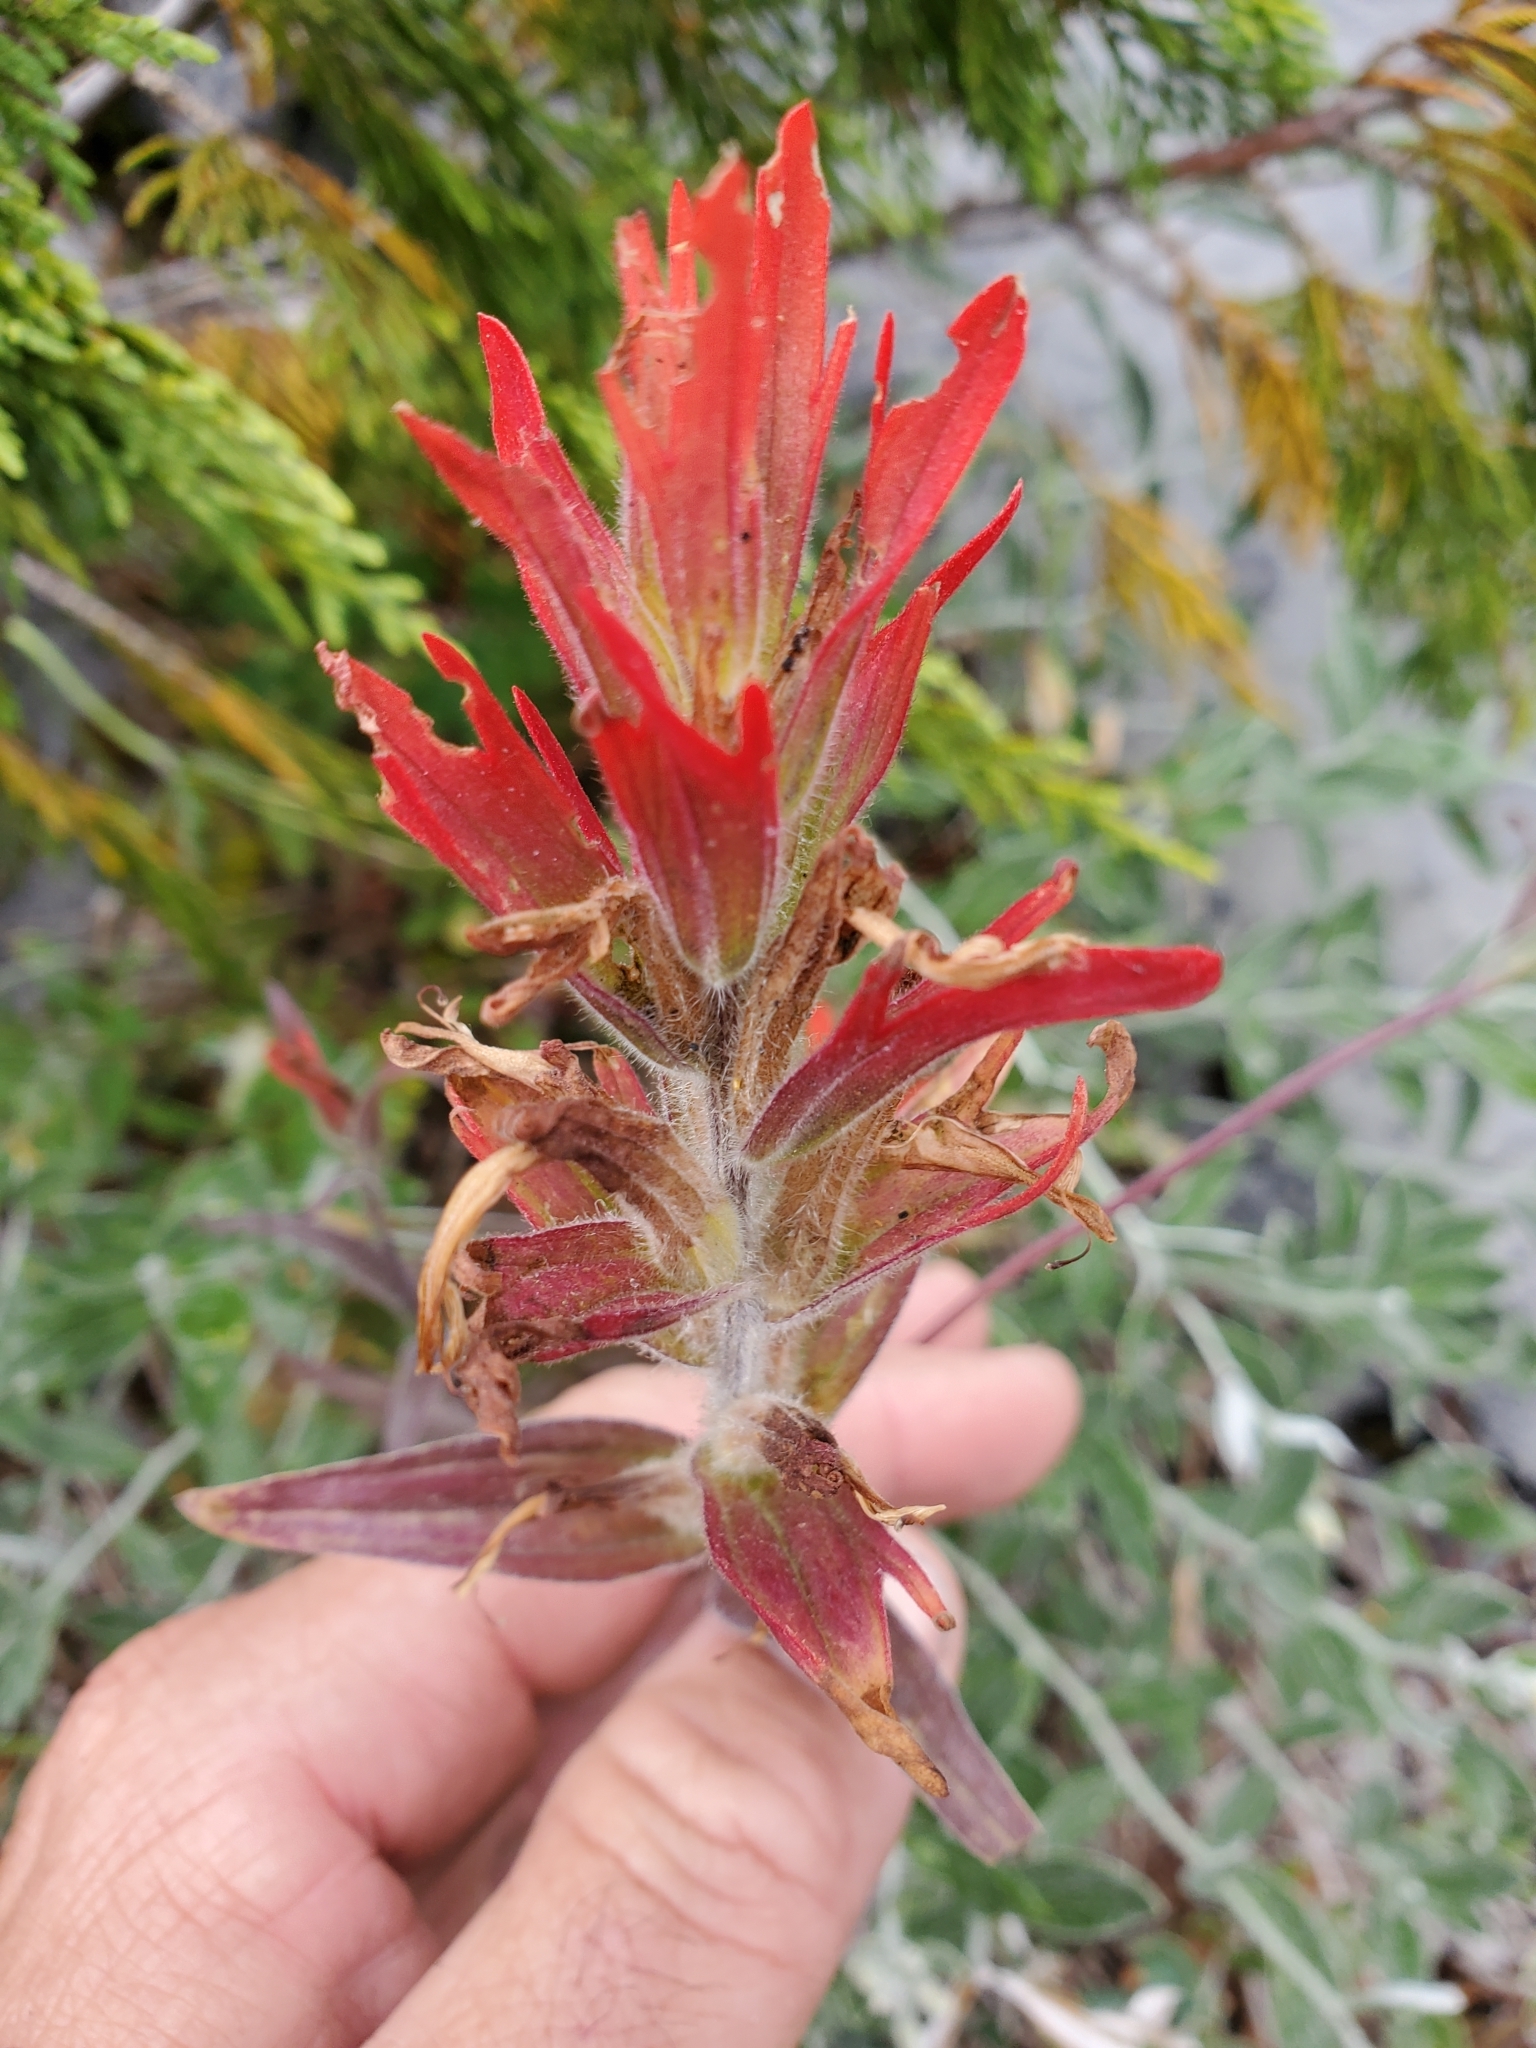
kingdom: Plantae
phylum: Tracheophyta
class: Magnoliopsida
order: Lamiales
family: Orobanchaceae
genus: Castilleja
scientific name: Castilleja miniata
